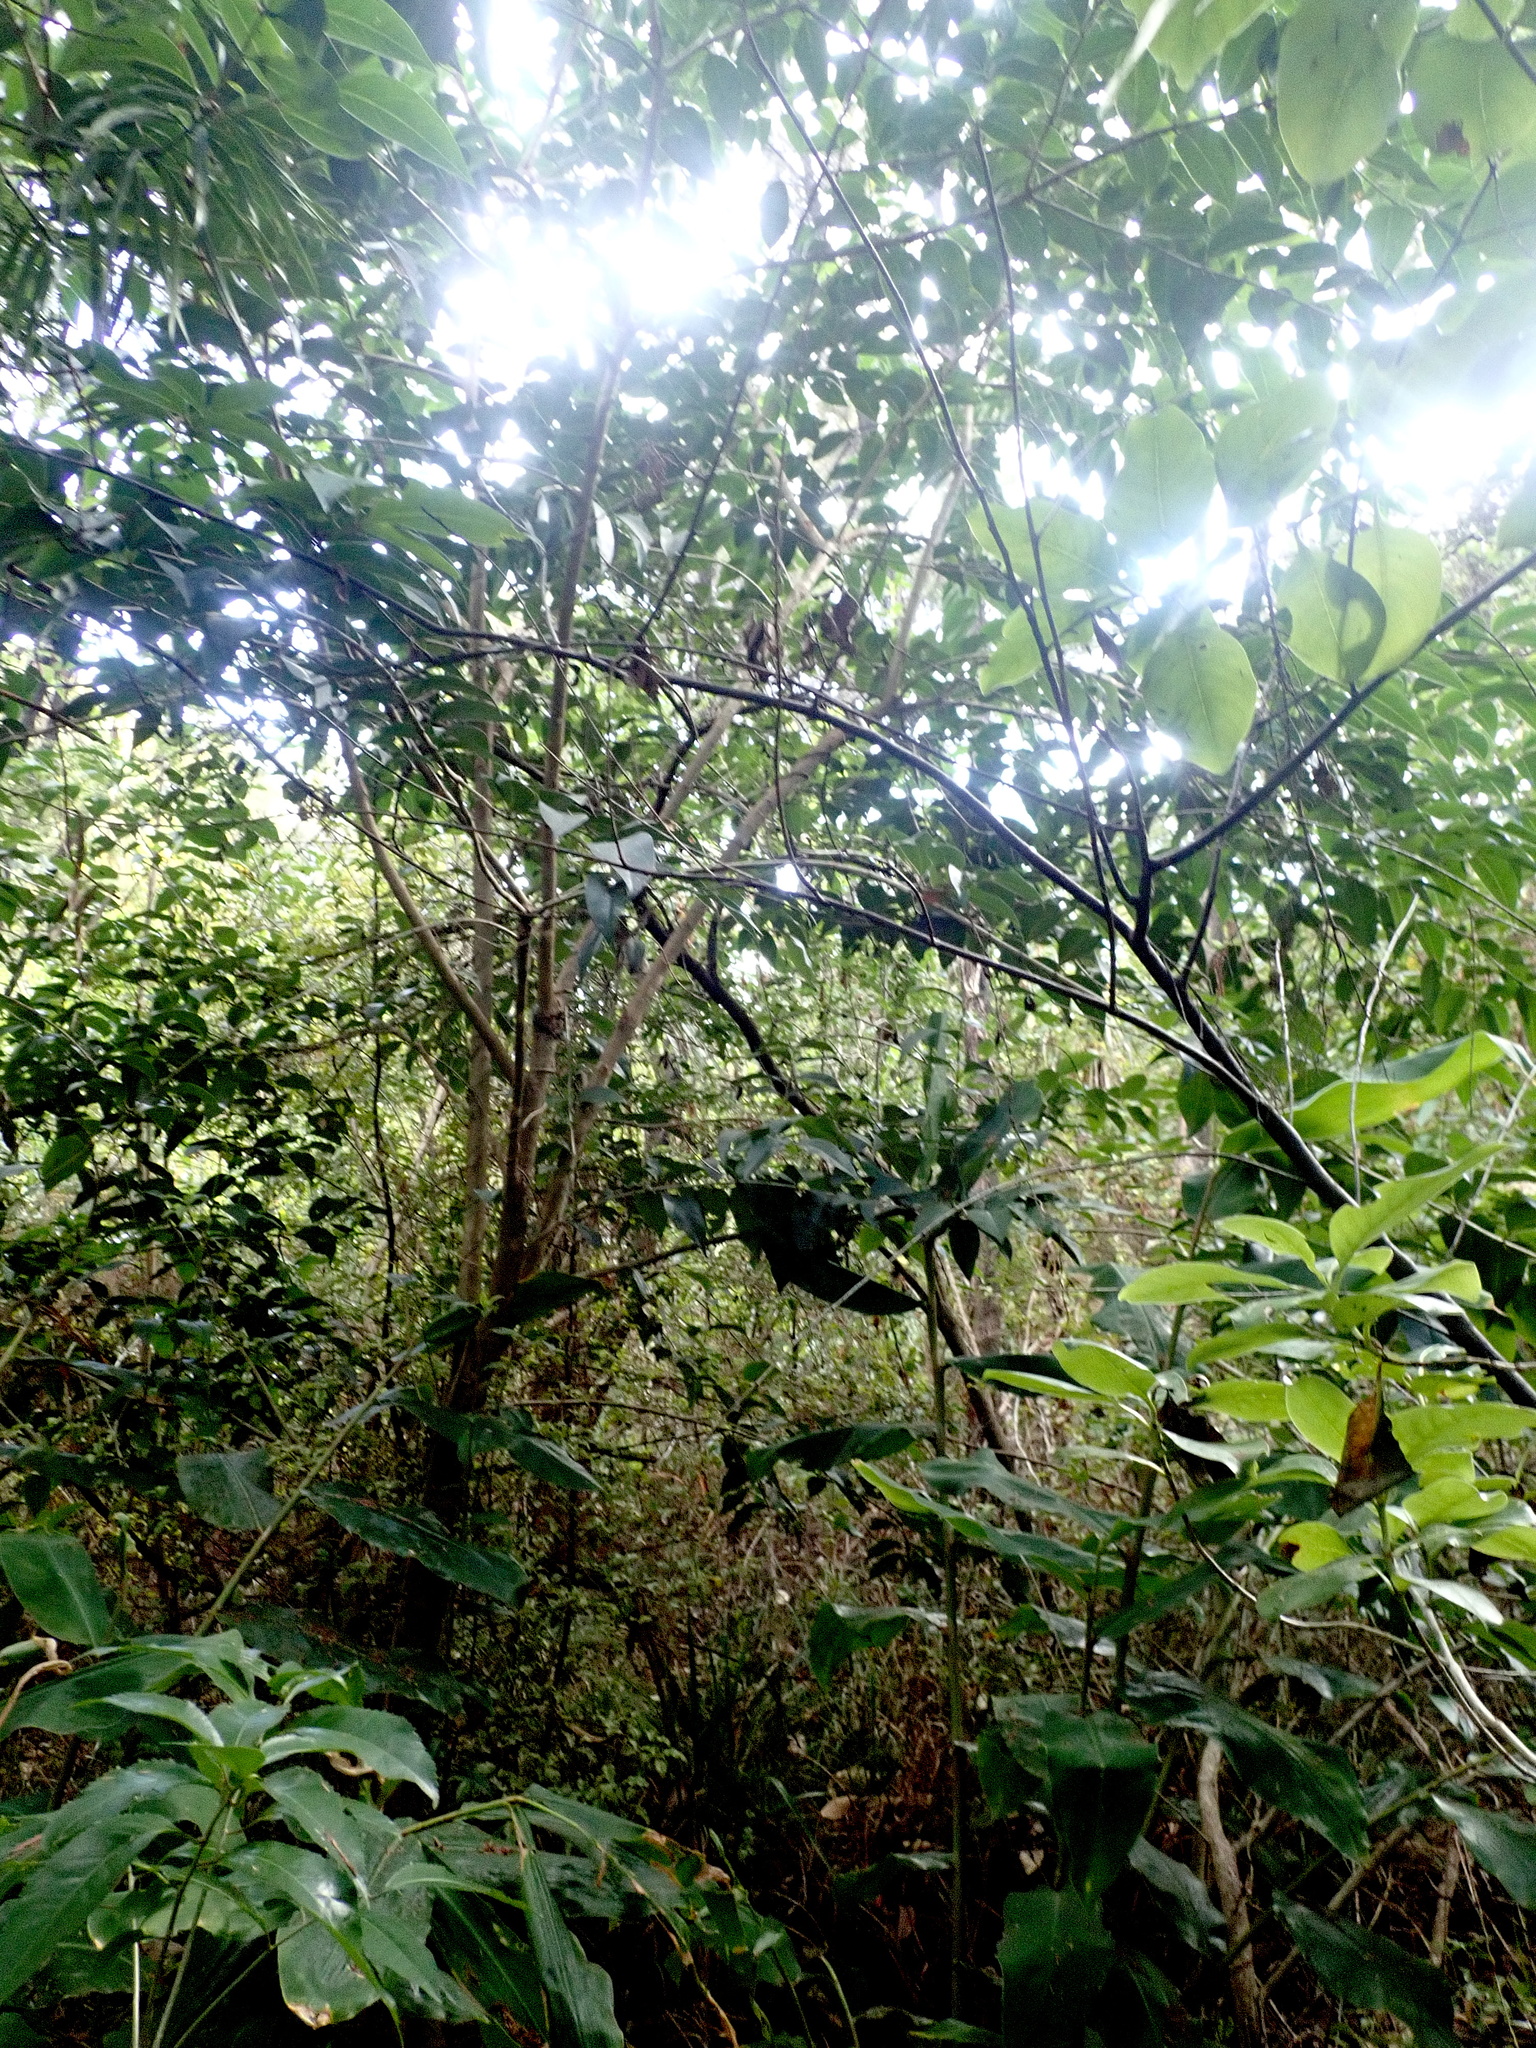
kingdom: Plantae
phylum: Tracheophyta
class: Magnoliopsida
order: Myrtales
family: Myrtaceae
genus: Syzygium
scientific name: Syzygium paniculatum
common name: Magenta lilly-pilly
